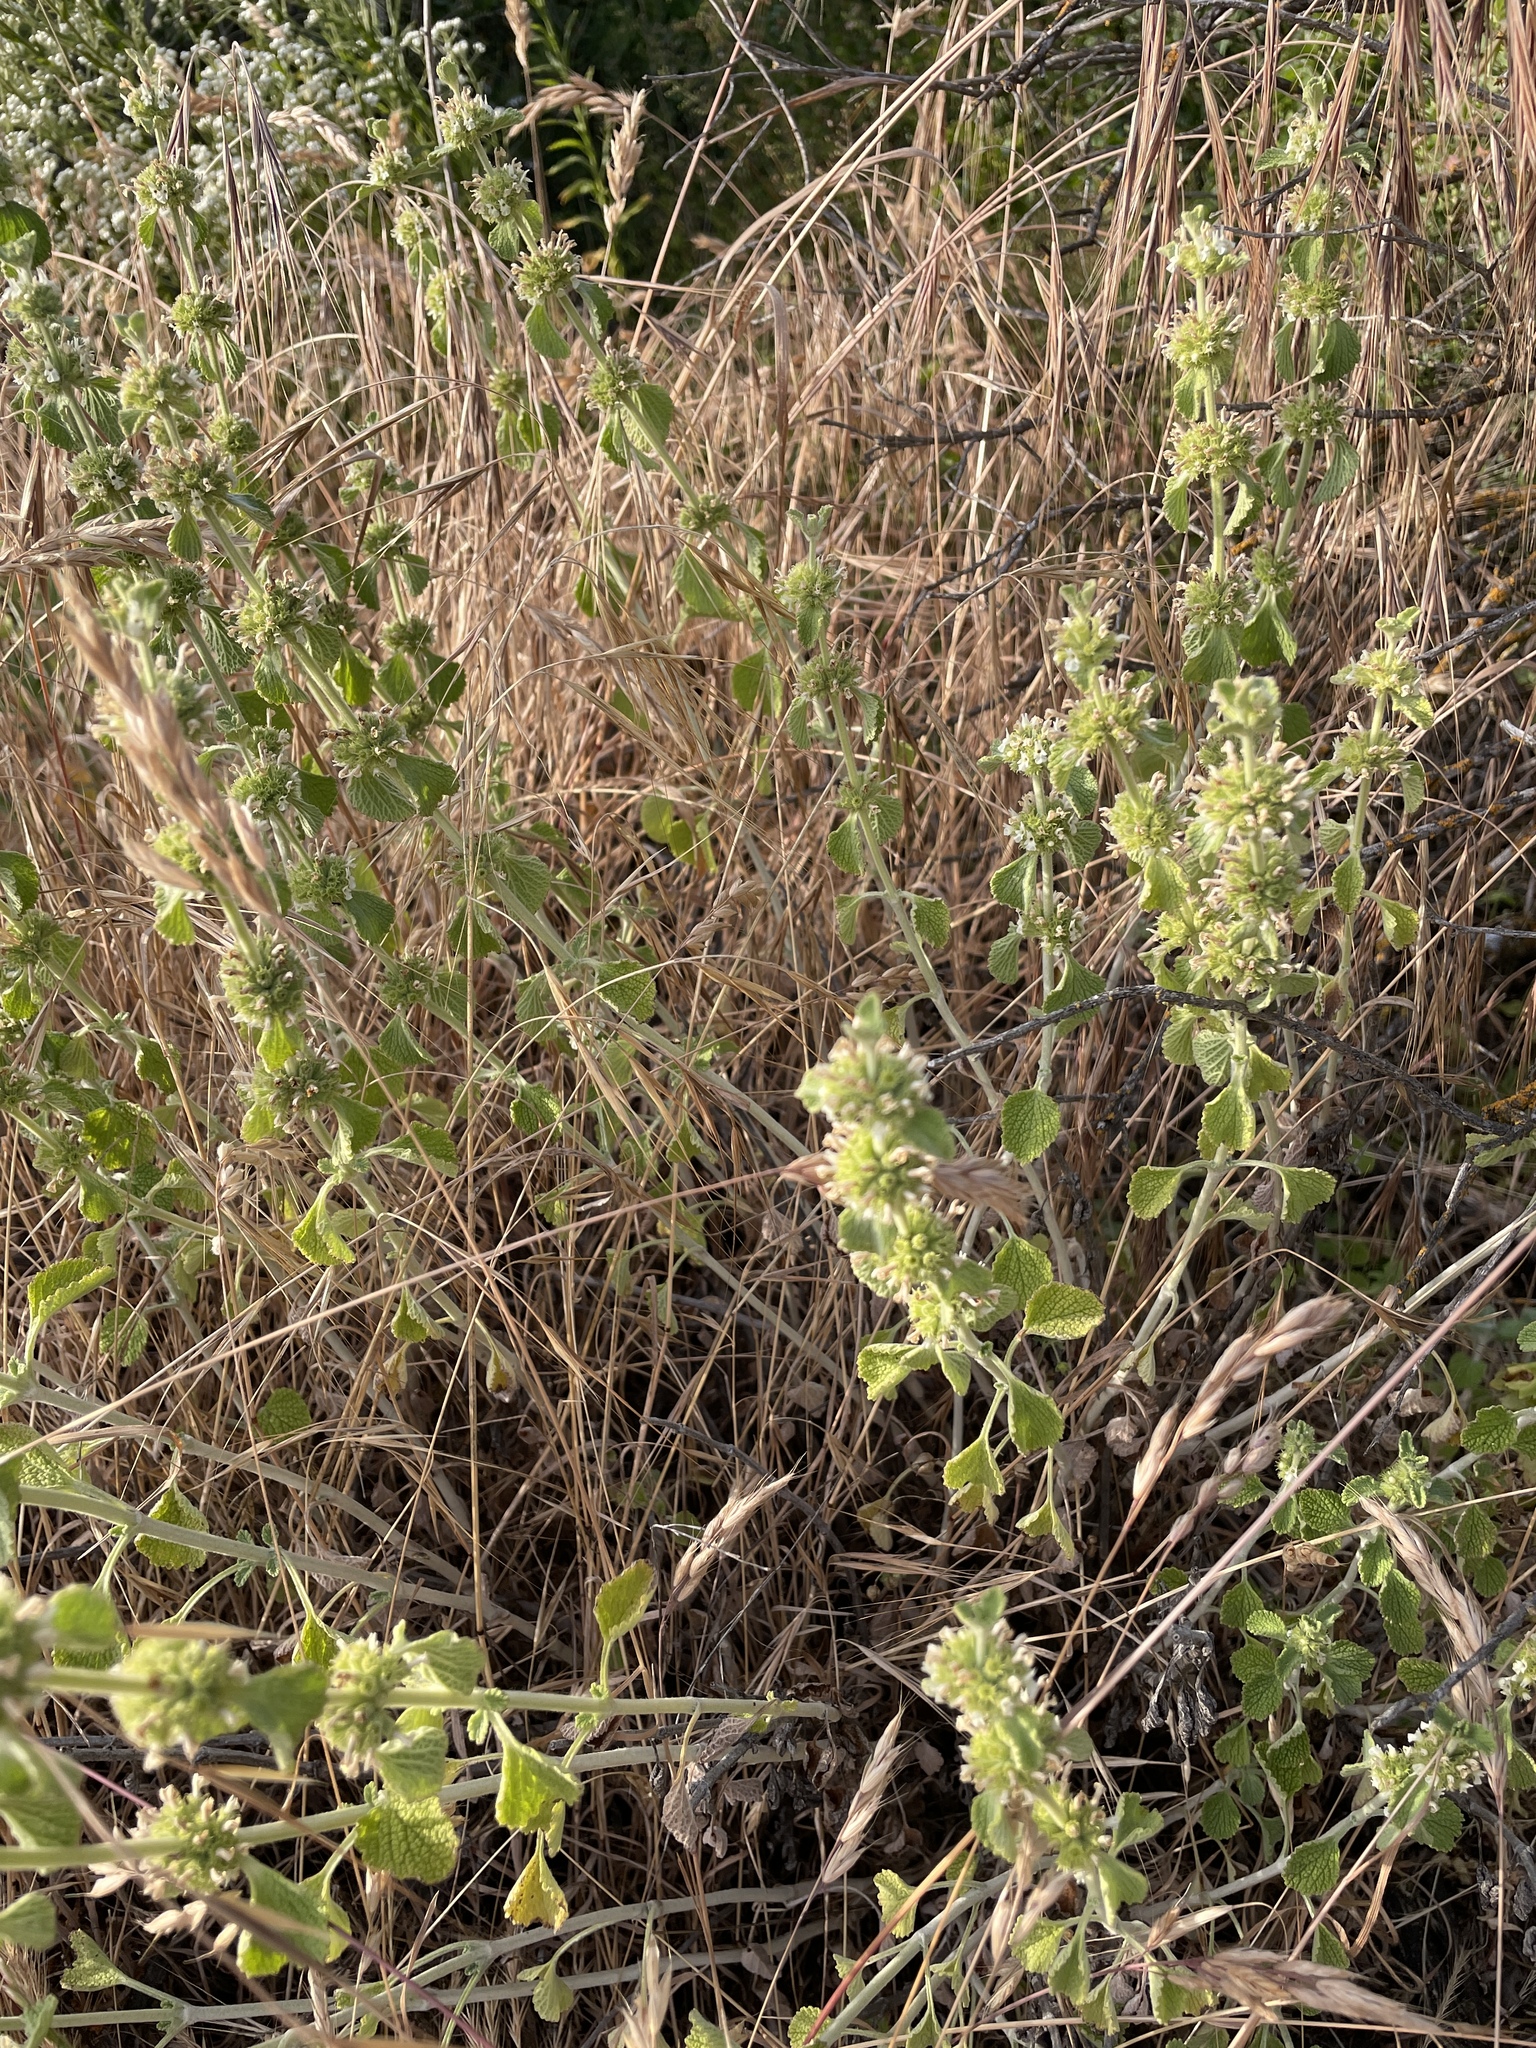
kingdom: Plantae
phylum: Tracheophyta
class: Magnoliopsida
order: Lamiales
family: Lamiaceae
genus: Marrubium
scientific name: Marrubium vulgare
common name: Horehound
